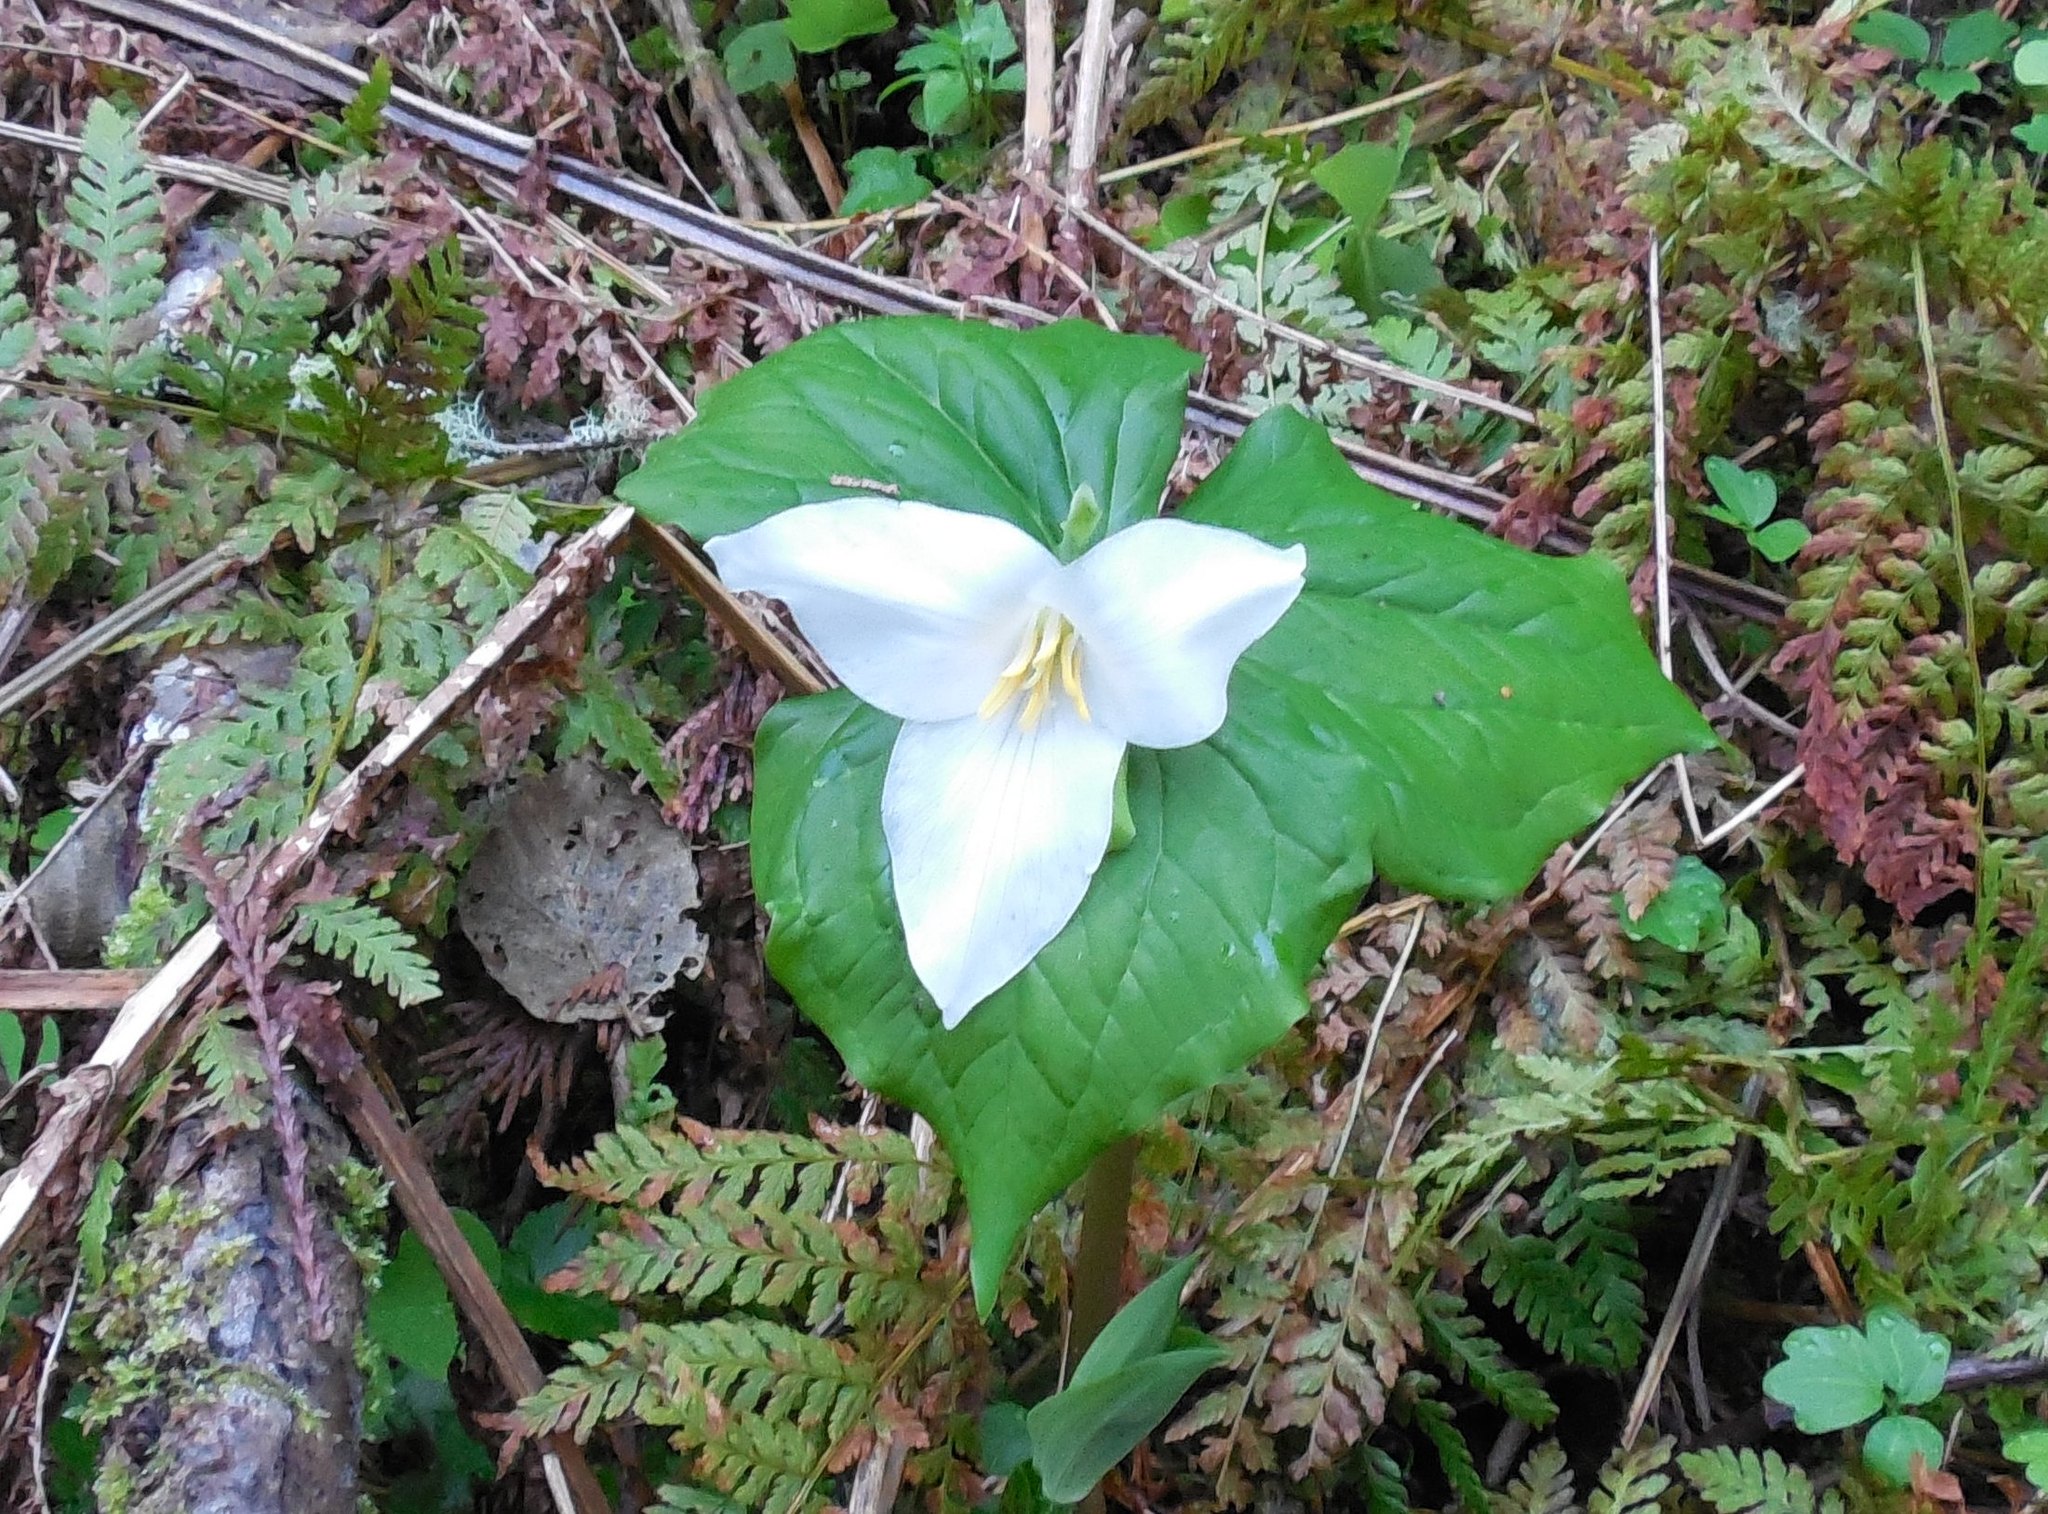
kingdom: Plantae
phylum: Tracheophyta
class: Liliopsida
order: Liliales
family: Melanthiaceae
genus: Trillium
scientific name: Trillium ovatum
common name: Pacific trillium
